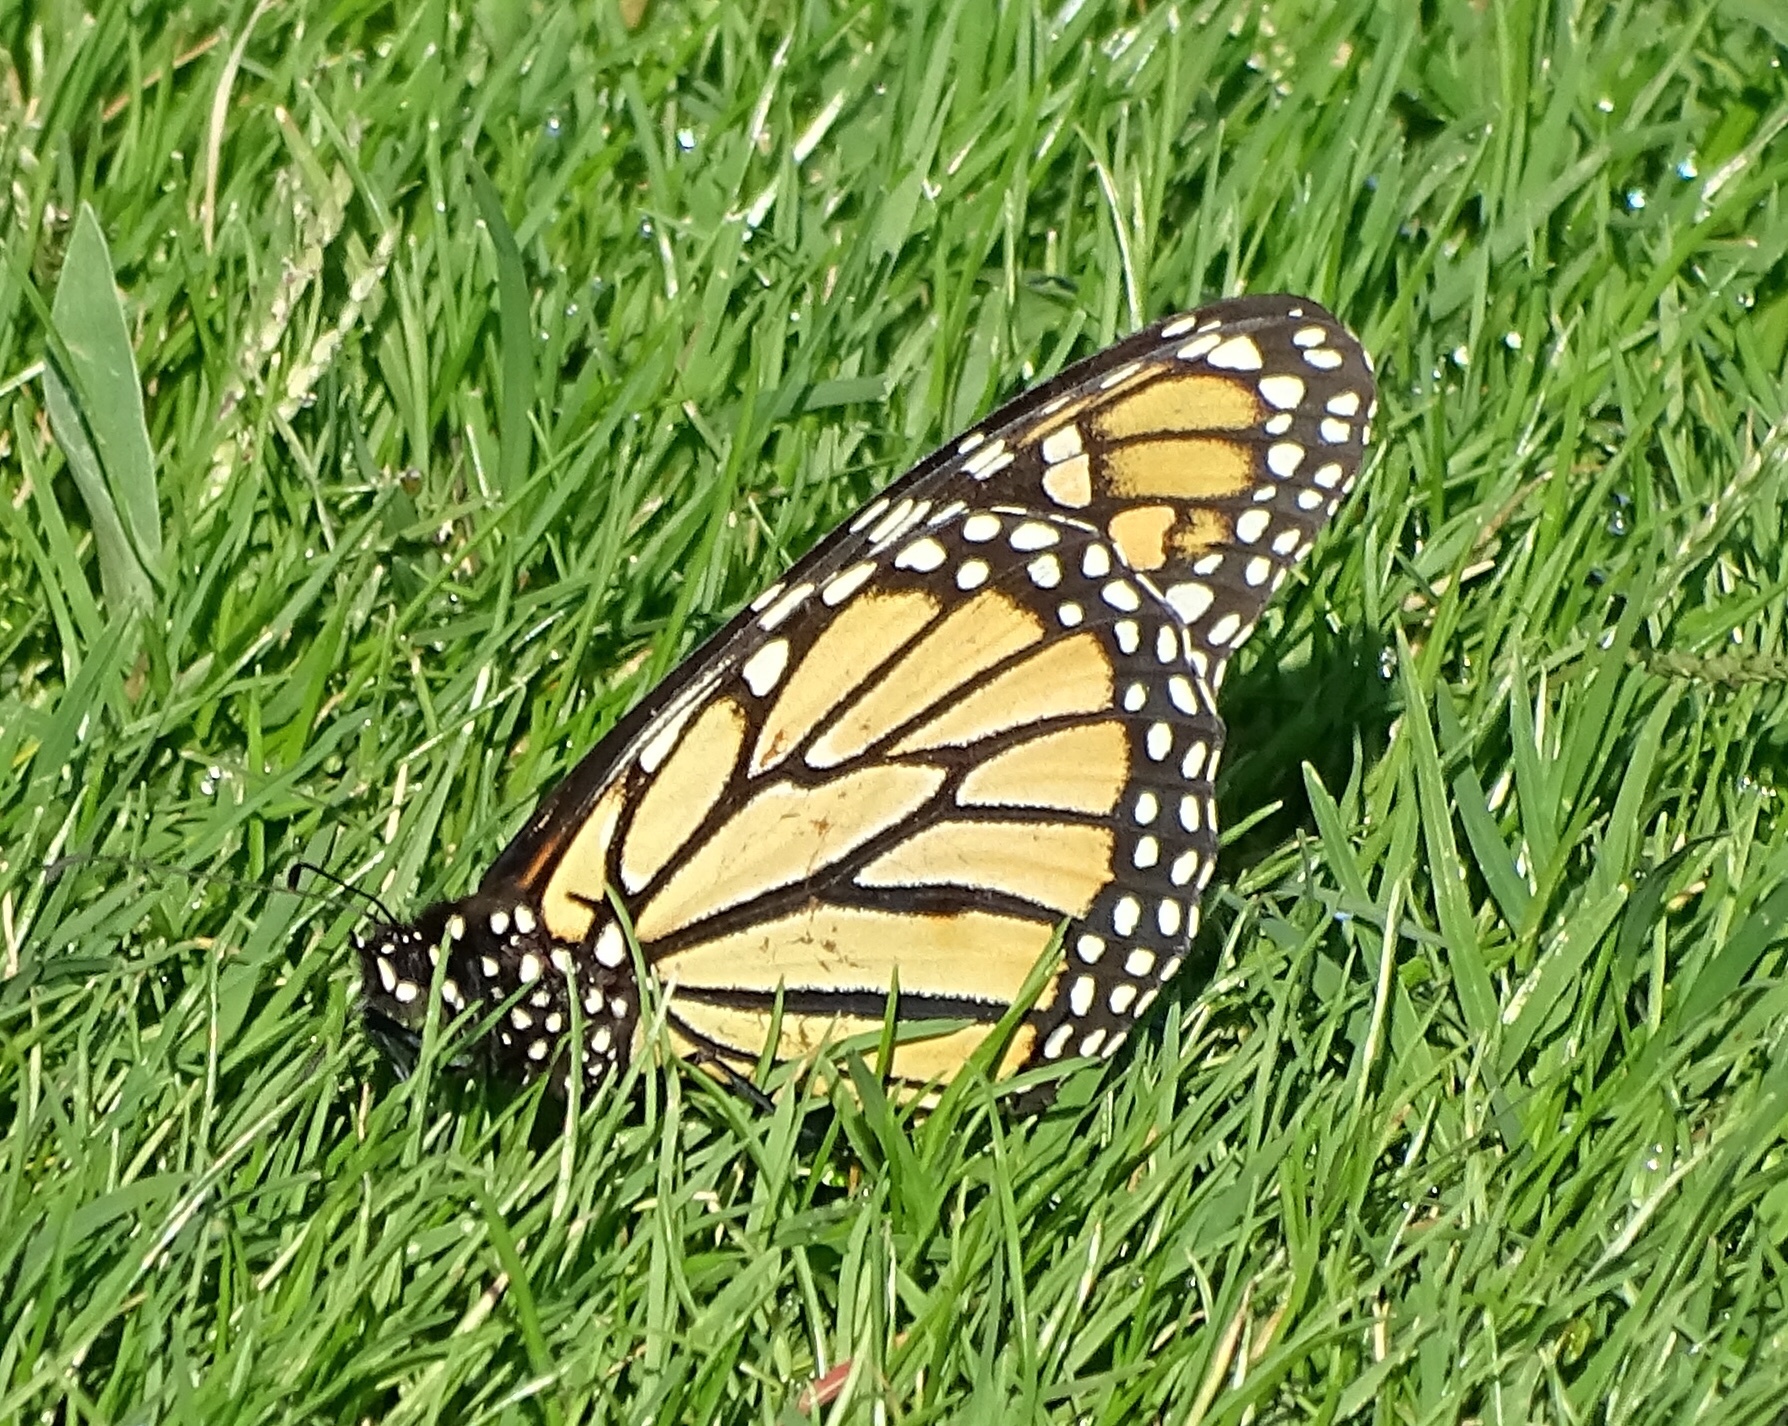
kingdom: Animalia
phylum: Arthropoda
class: Insecta
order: Lepidoptera
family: Nymphalidae
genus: Danaus
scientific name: Danaus plexippus
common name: Monarch
